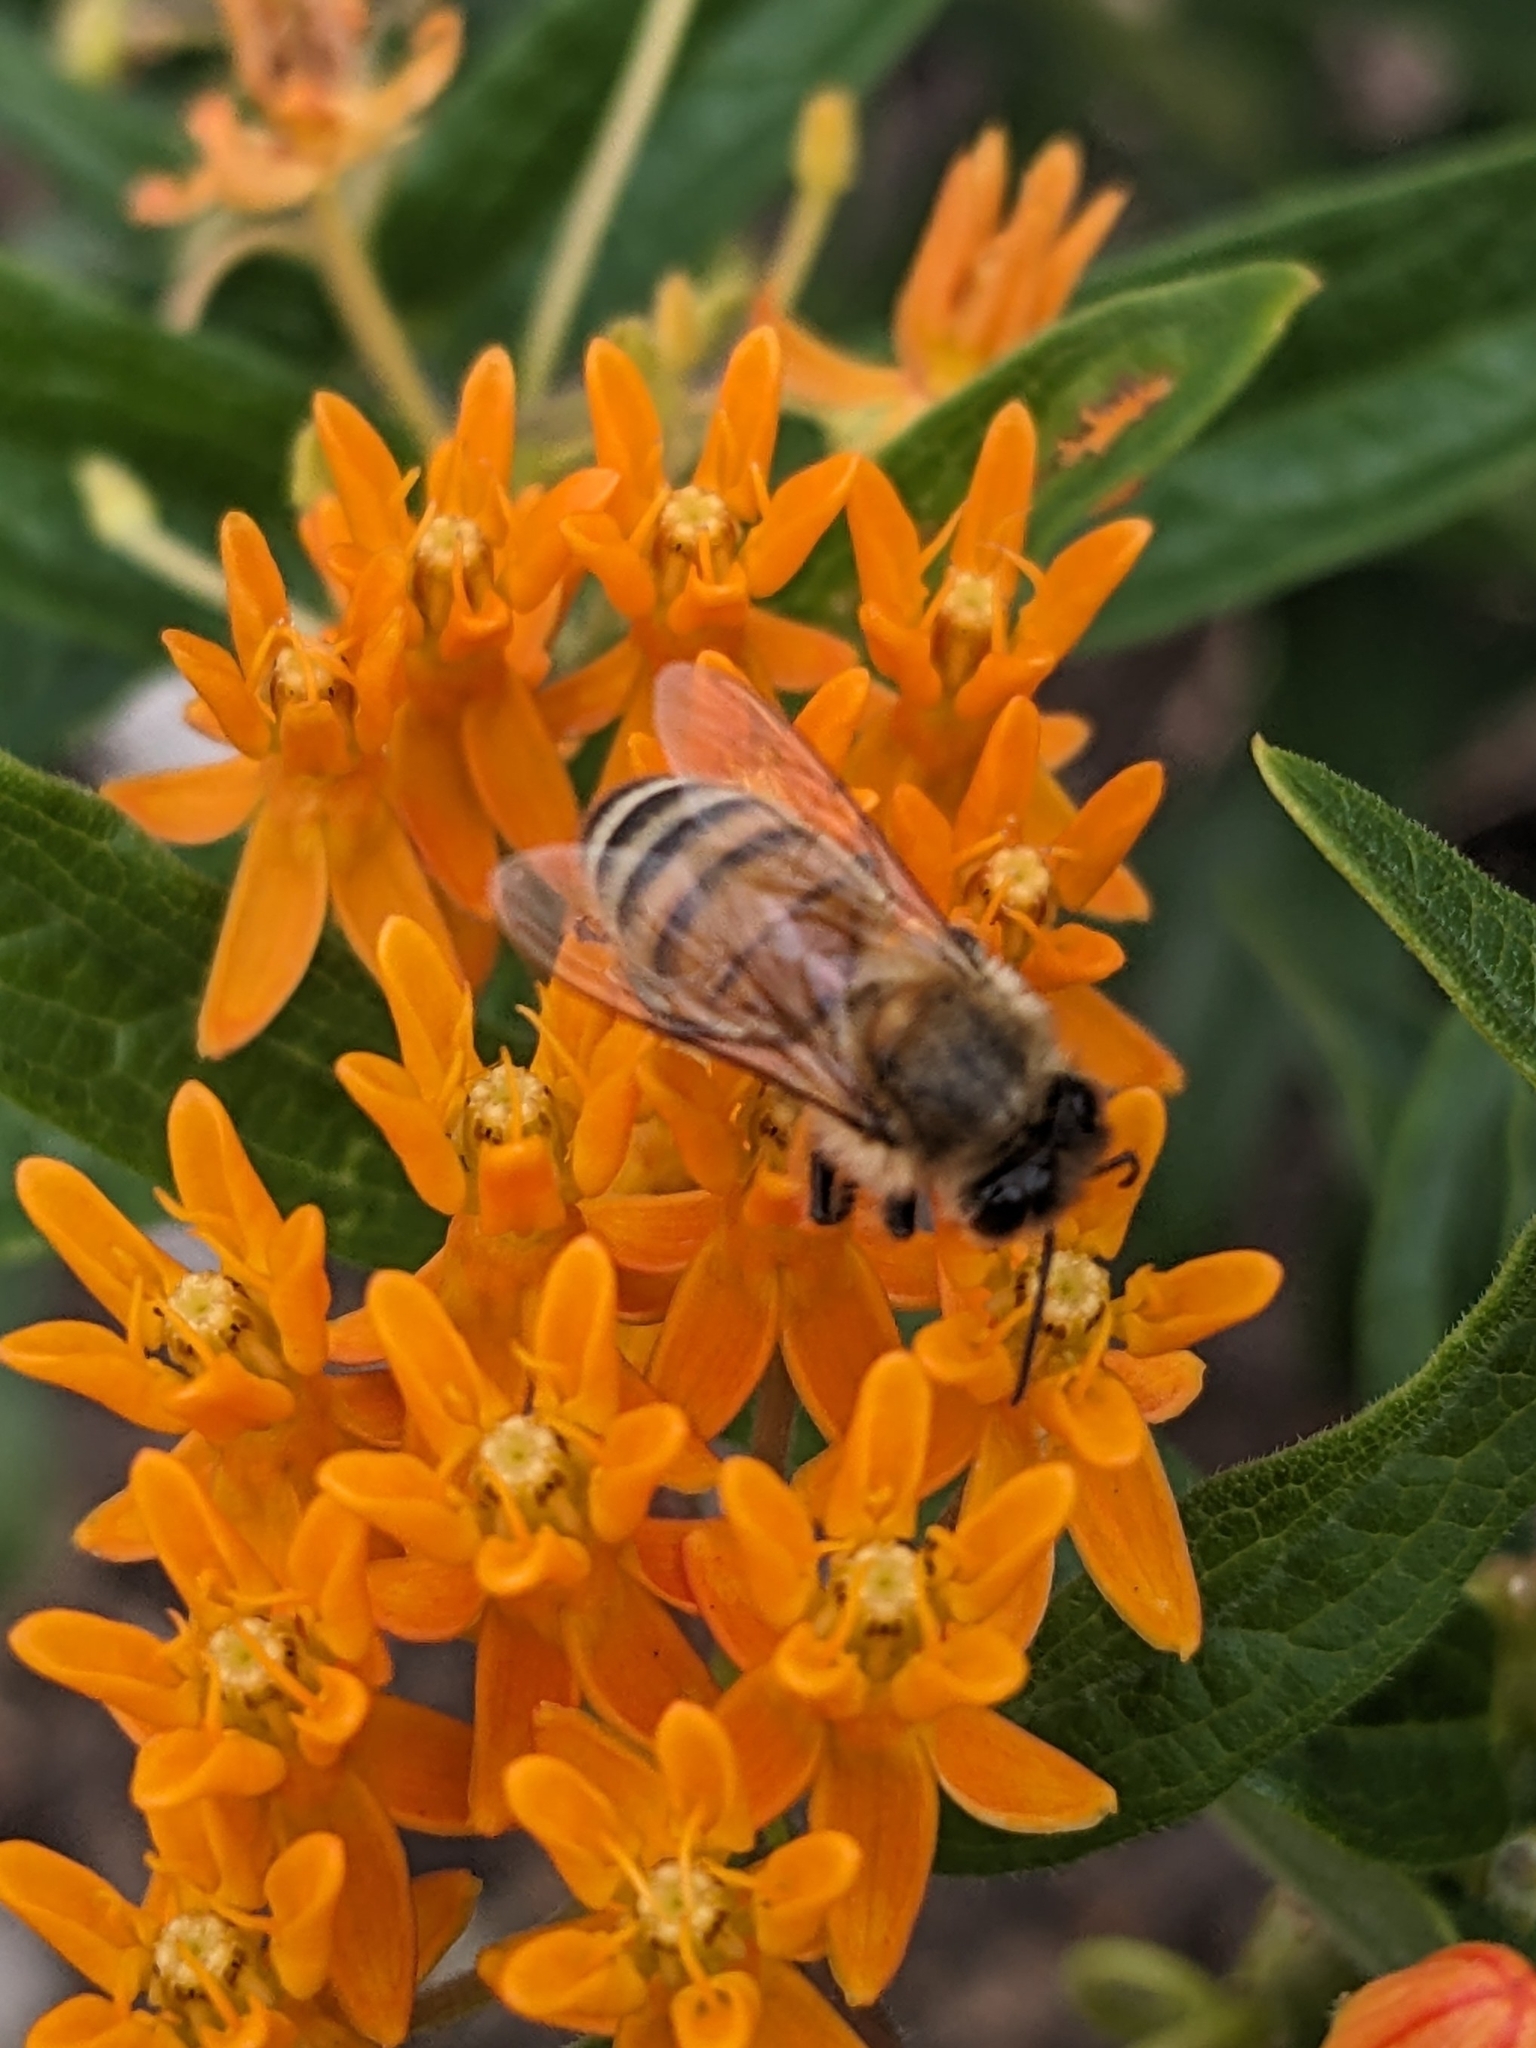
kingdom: Animalia
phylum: Arthropoda
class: Insecta
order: Hymenoptera
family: Apidae
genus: Apis
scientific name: Apis mellifera
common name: Honey bee
